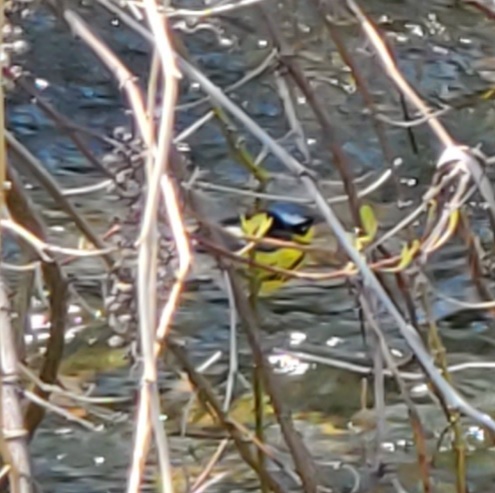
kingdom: Animalia
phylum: Chordata
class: Aves
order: Passeriformes
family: Parulidae
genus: Setophaga
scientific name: Setophaga magnolia
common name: Magnolia warbler
